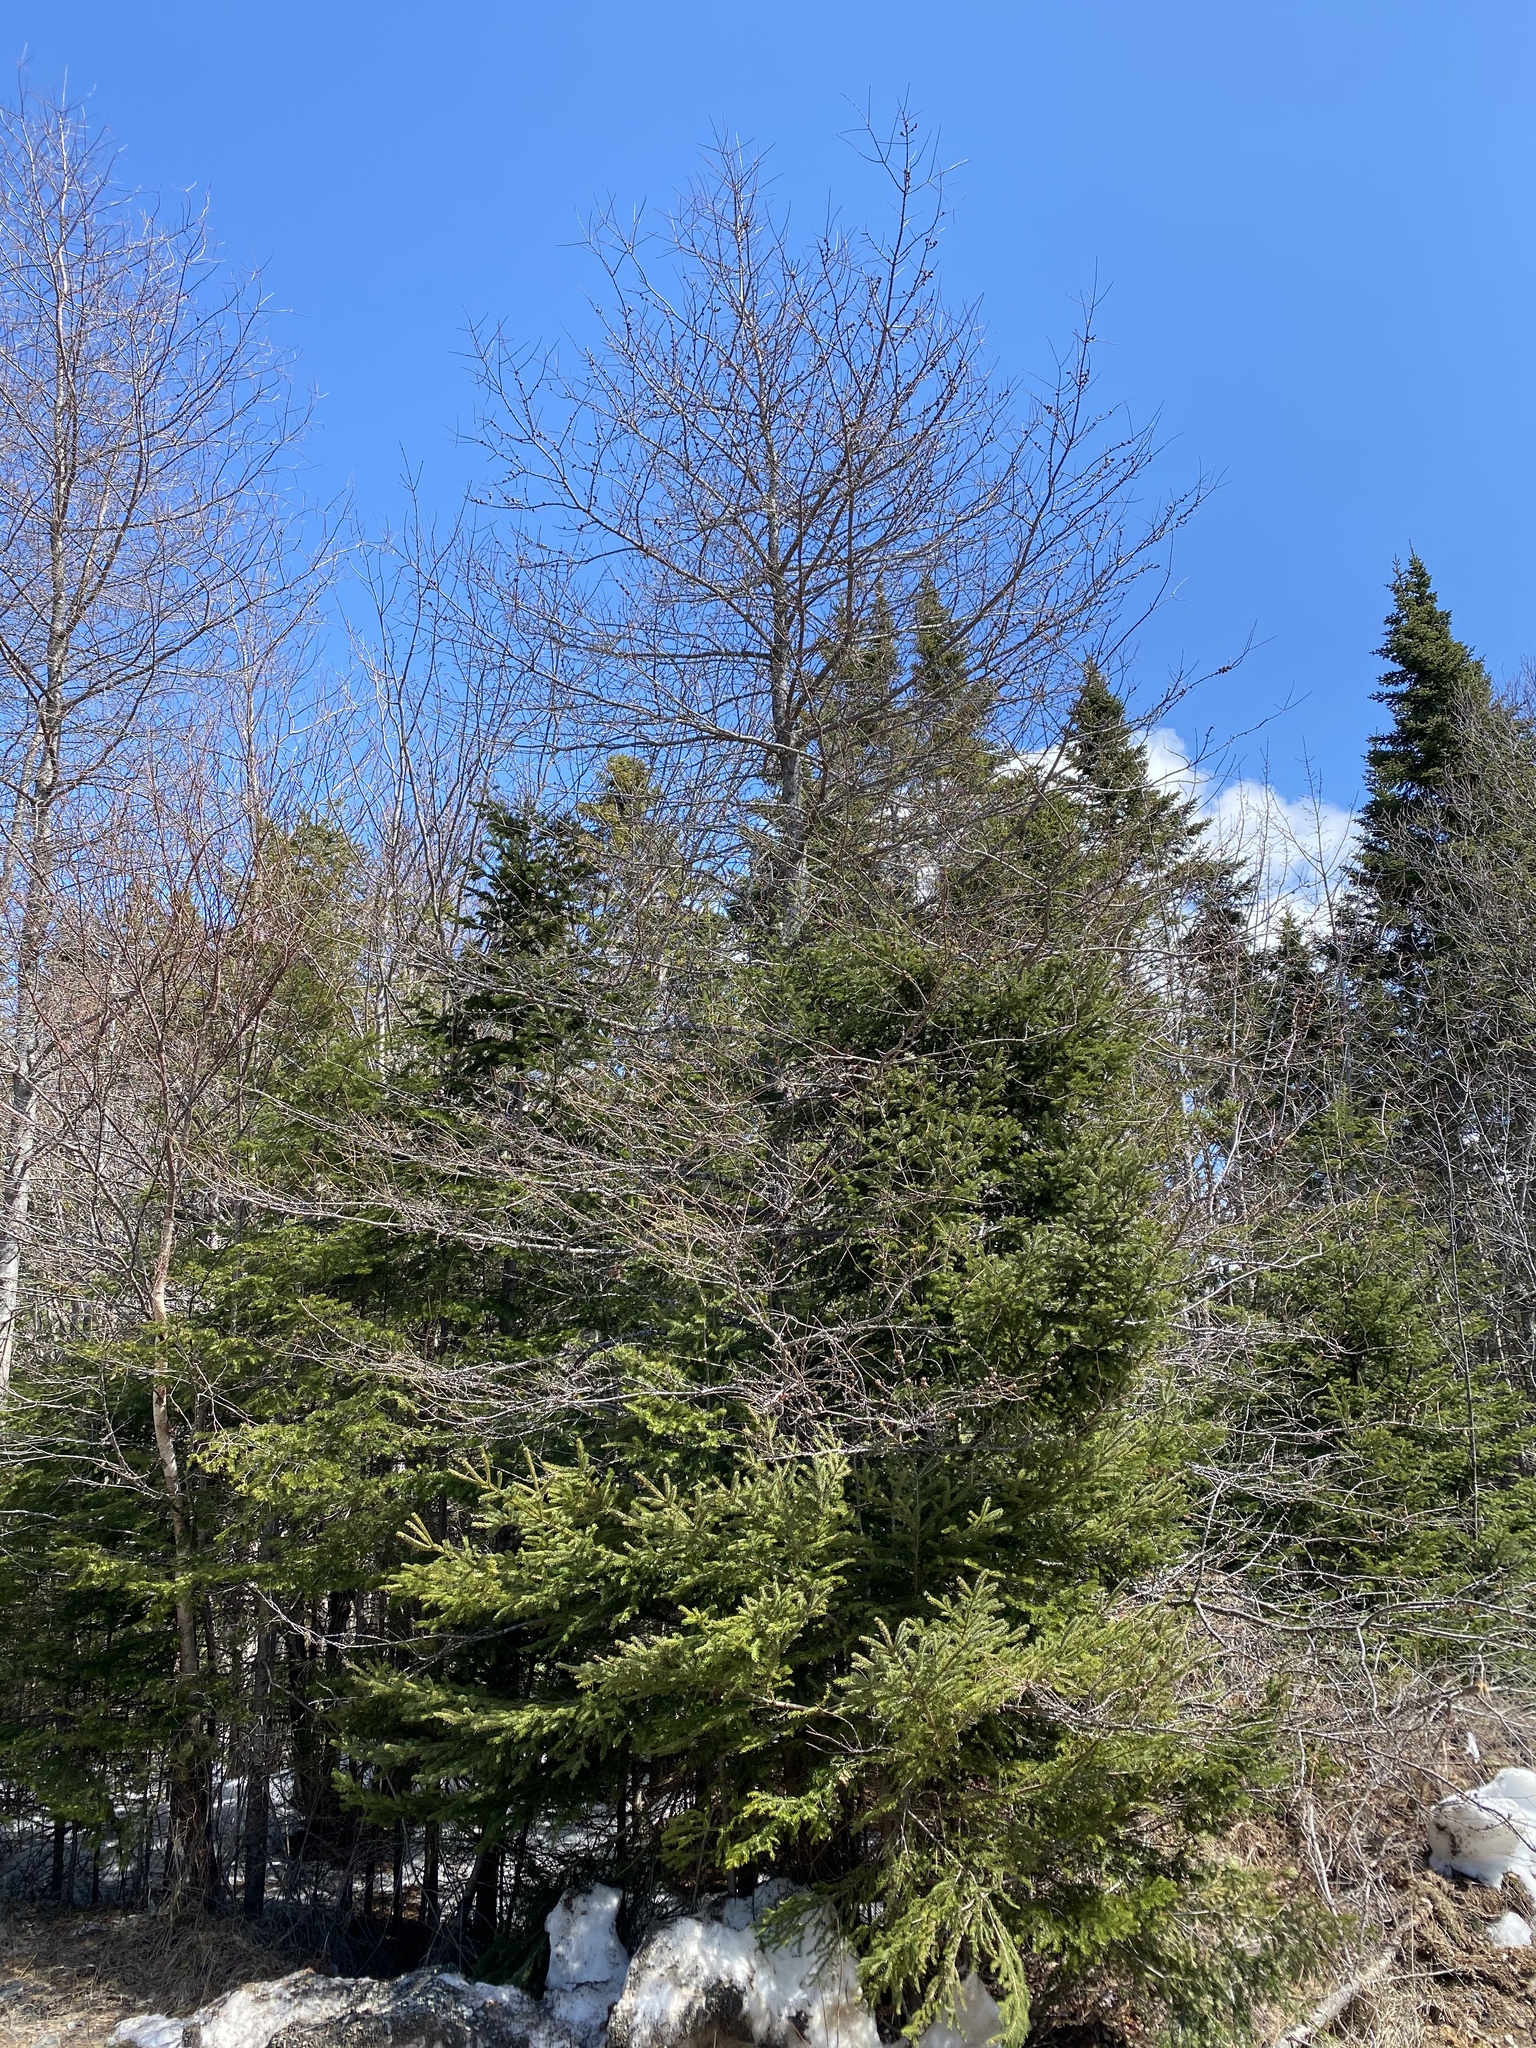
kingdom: Plantae
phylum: Tracheophyta
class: Pinopsida
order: Pinales
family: Pinaceae
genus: Larix
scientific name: Larix laricina
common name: American larch
